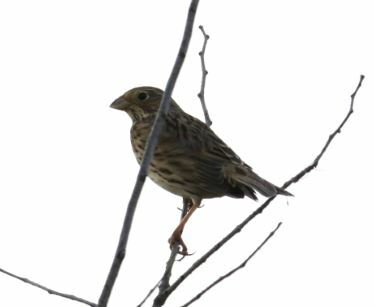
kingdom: Animalia
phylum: Chordata
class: Aves
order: Passeriformes
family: Emberizidae
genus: Emberiza
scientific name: Emberiza calandra
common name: Corn bunting
